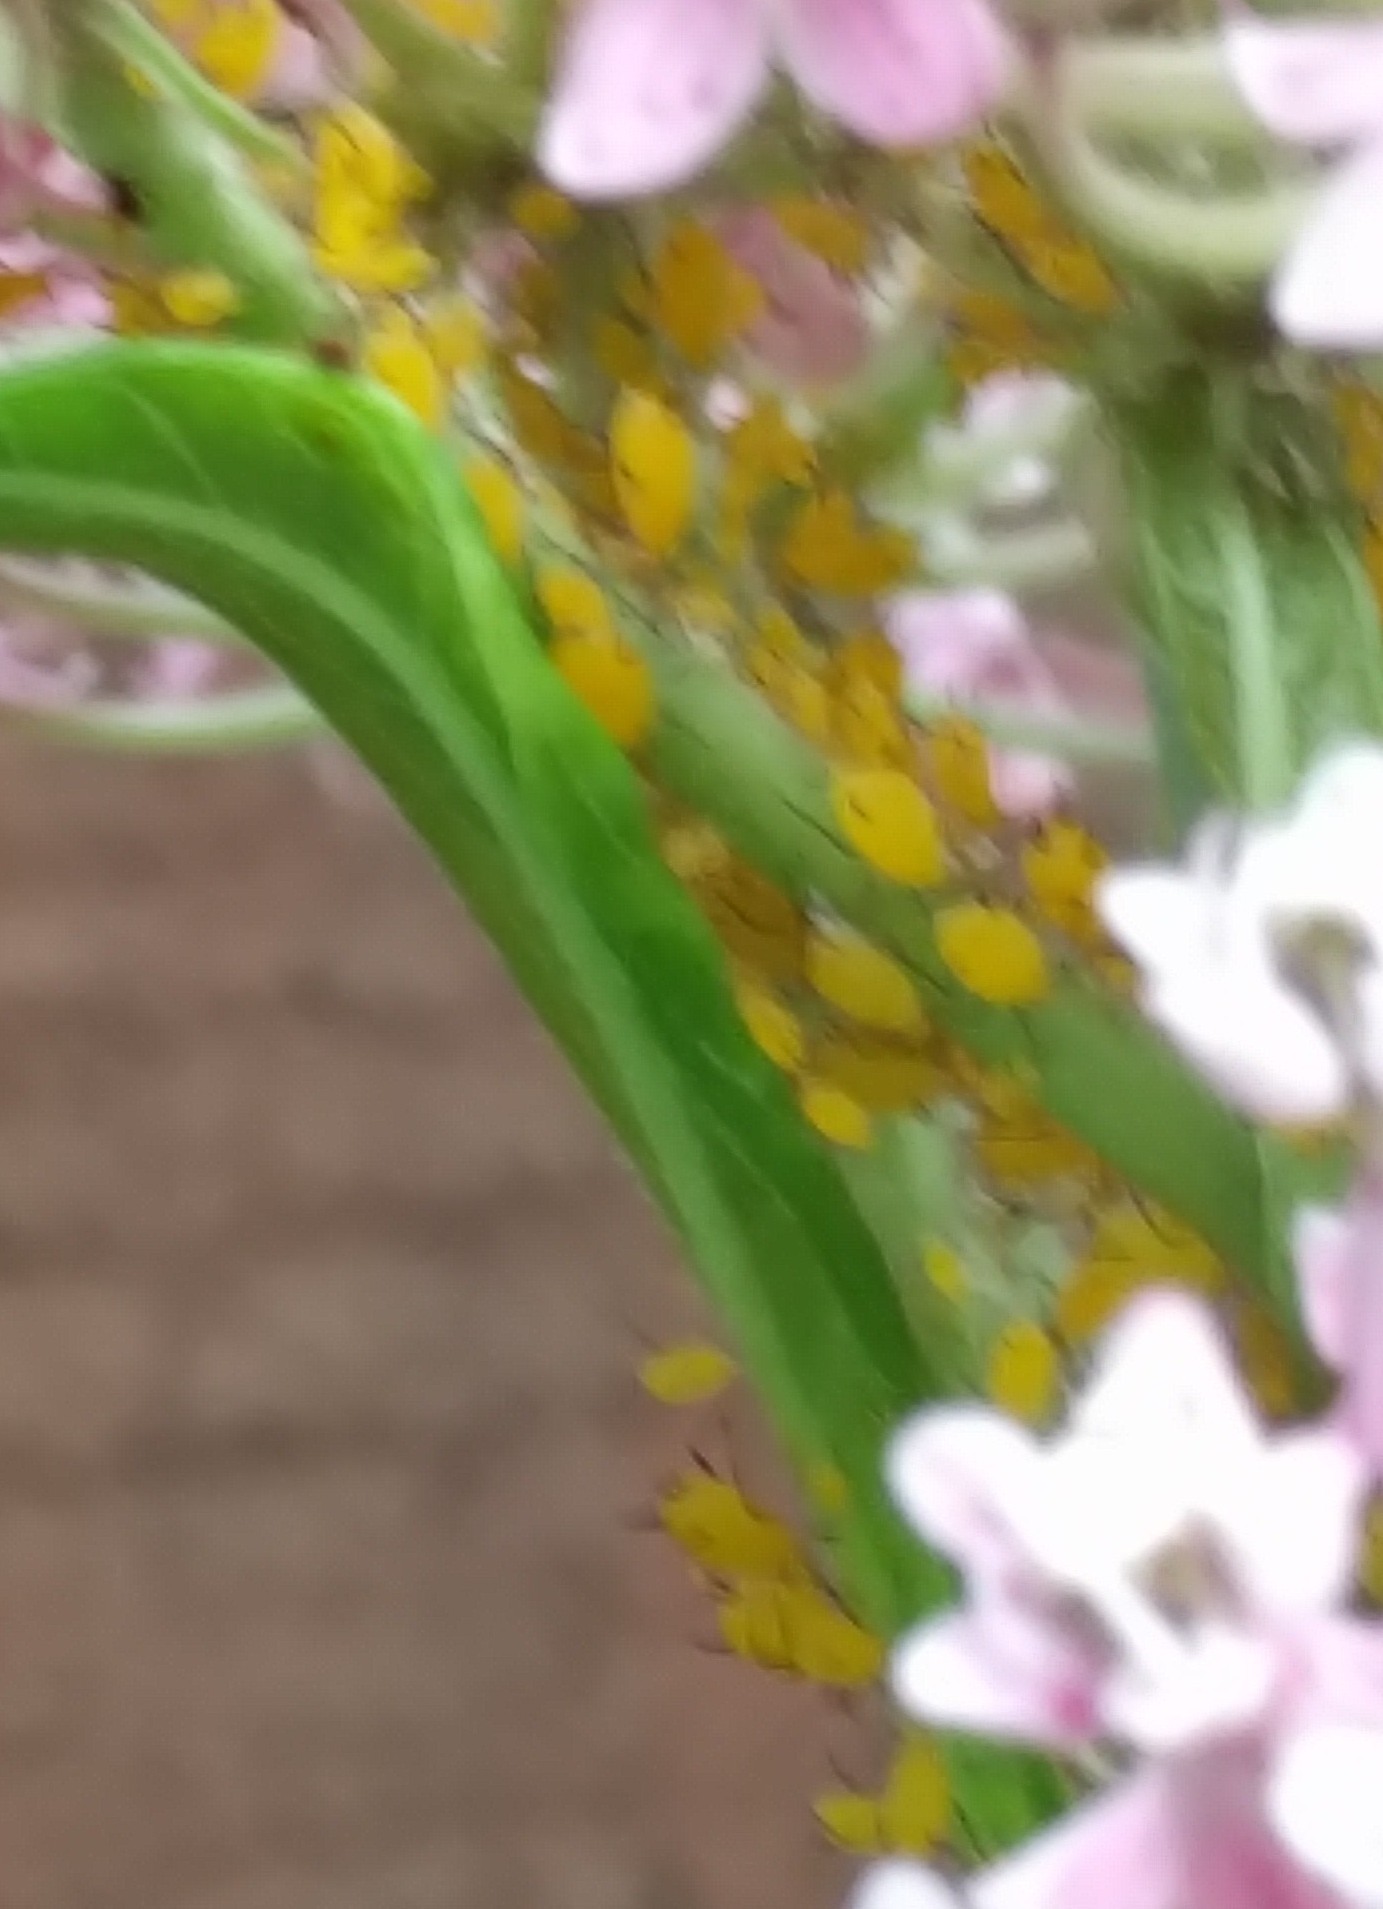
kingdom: Animalia
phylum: Arthropoda
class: Insecta
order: Hemiptera
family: Aphididae
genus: Aphis
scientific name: Aphis nerii
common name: Oleander aphid
